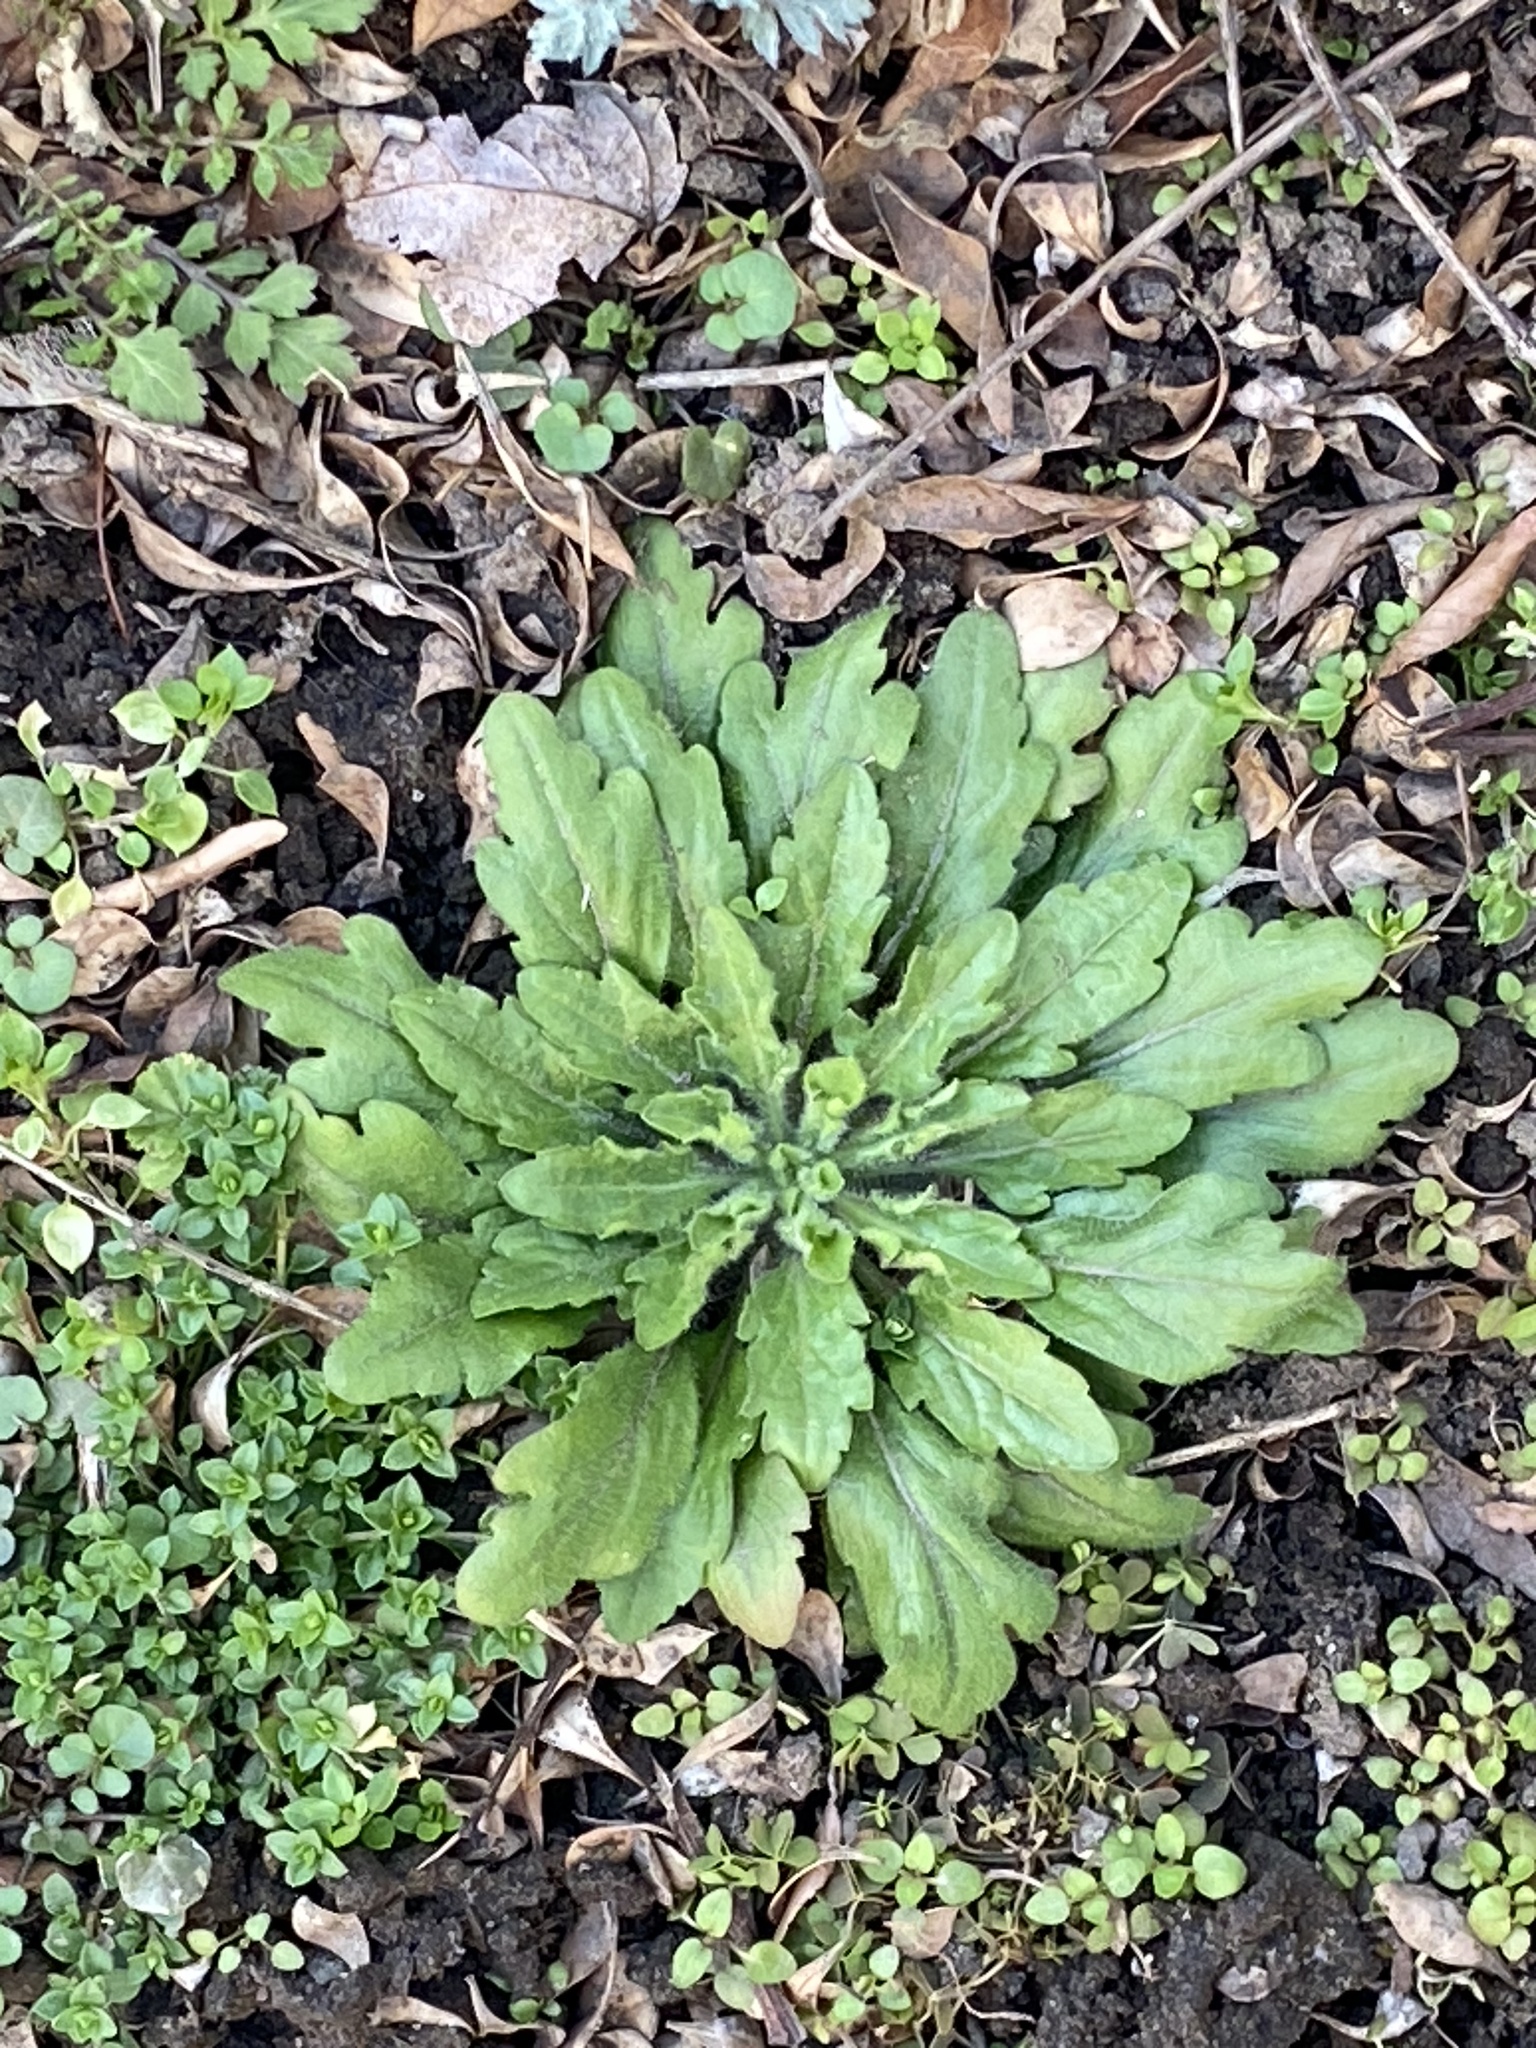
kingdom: Plantae
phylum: Tracheophyta
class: Magnoliopsida
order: Asterales
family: Asteraceae
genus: Erigeron
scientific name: Erigeron canadensis
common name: Canadian fleabane
